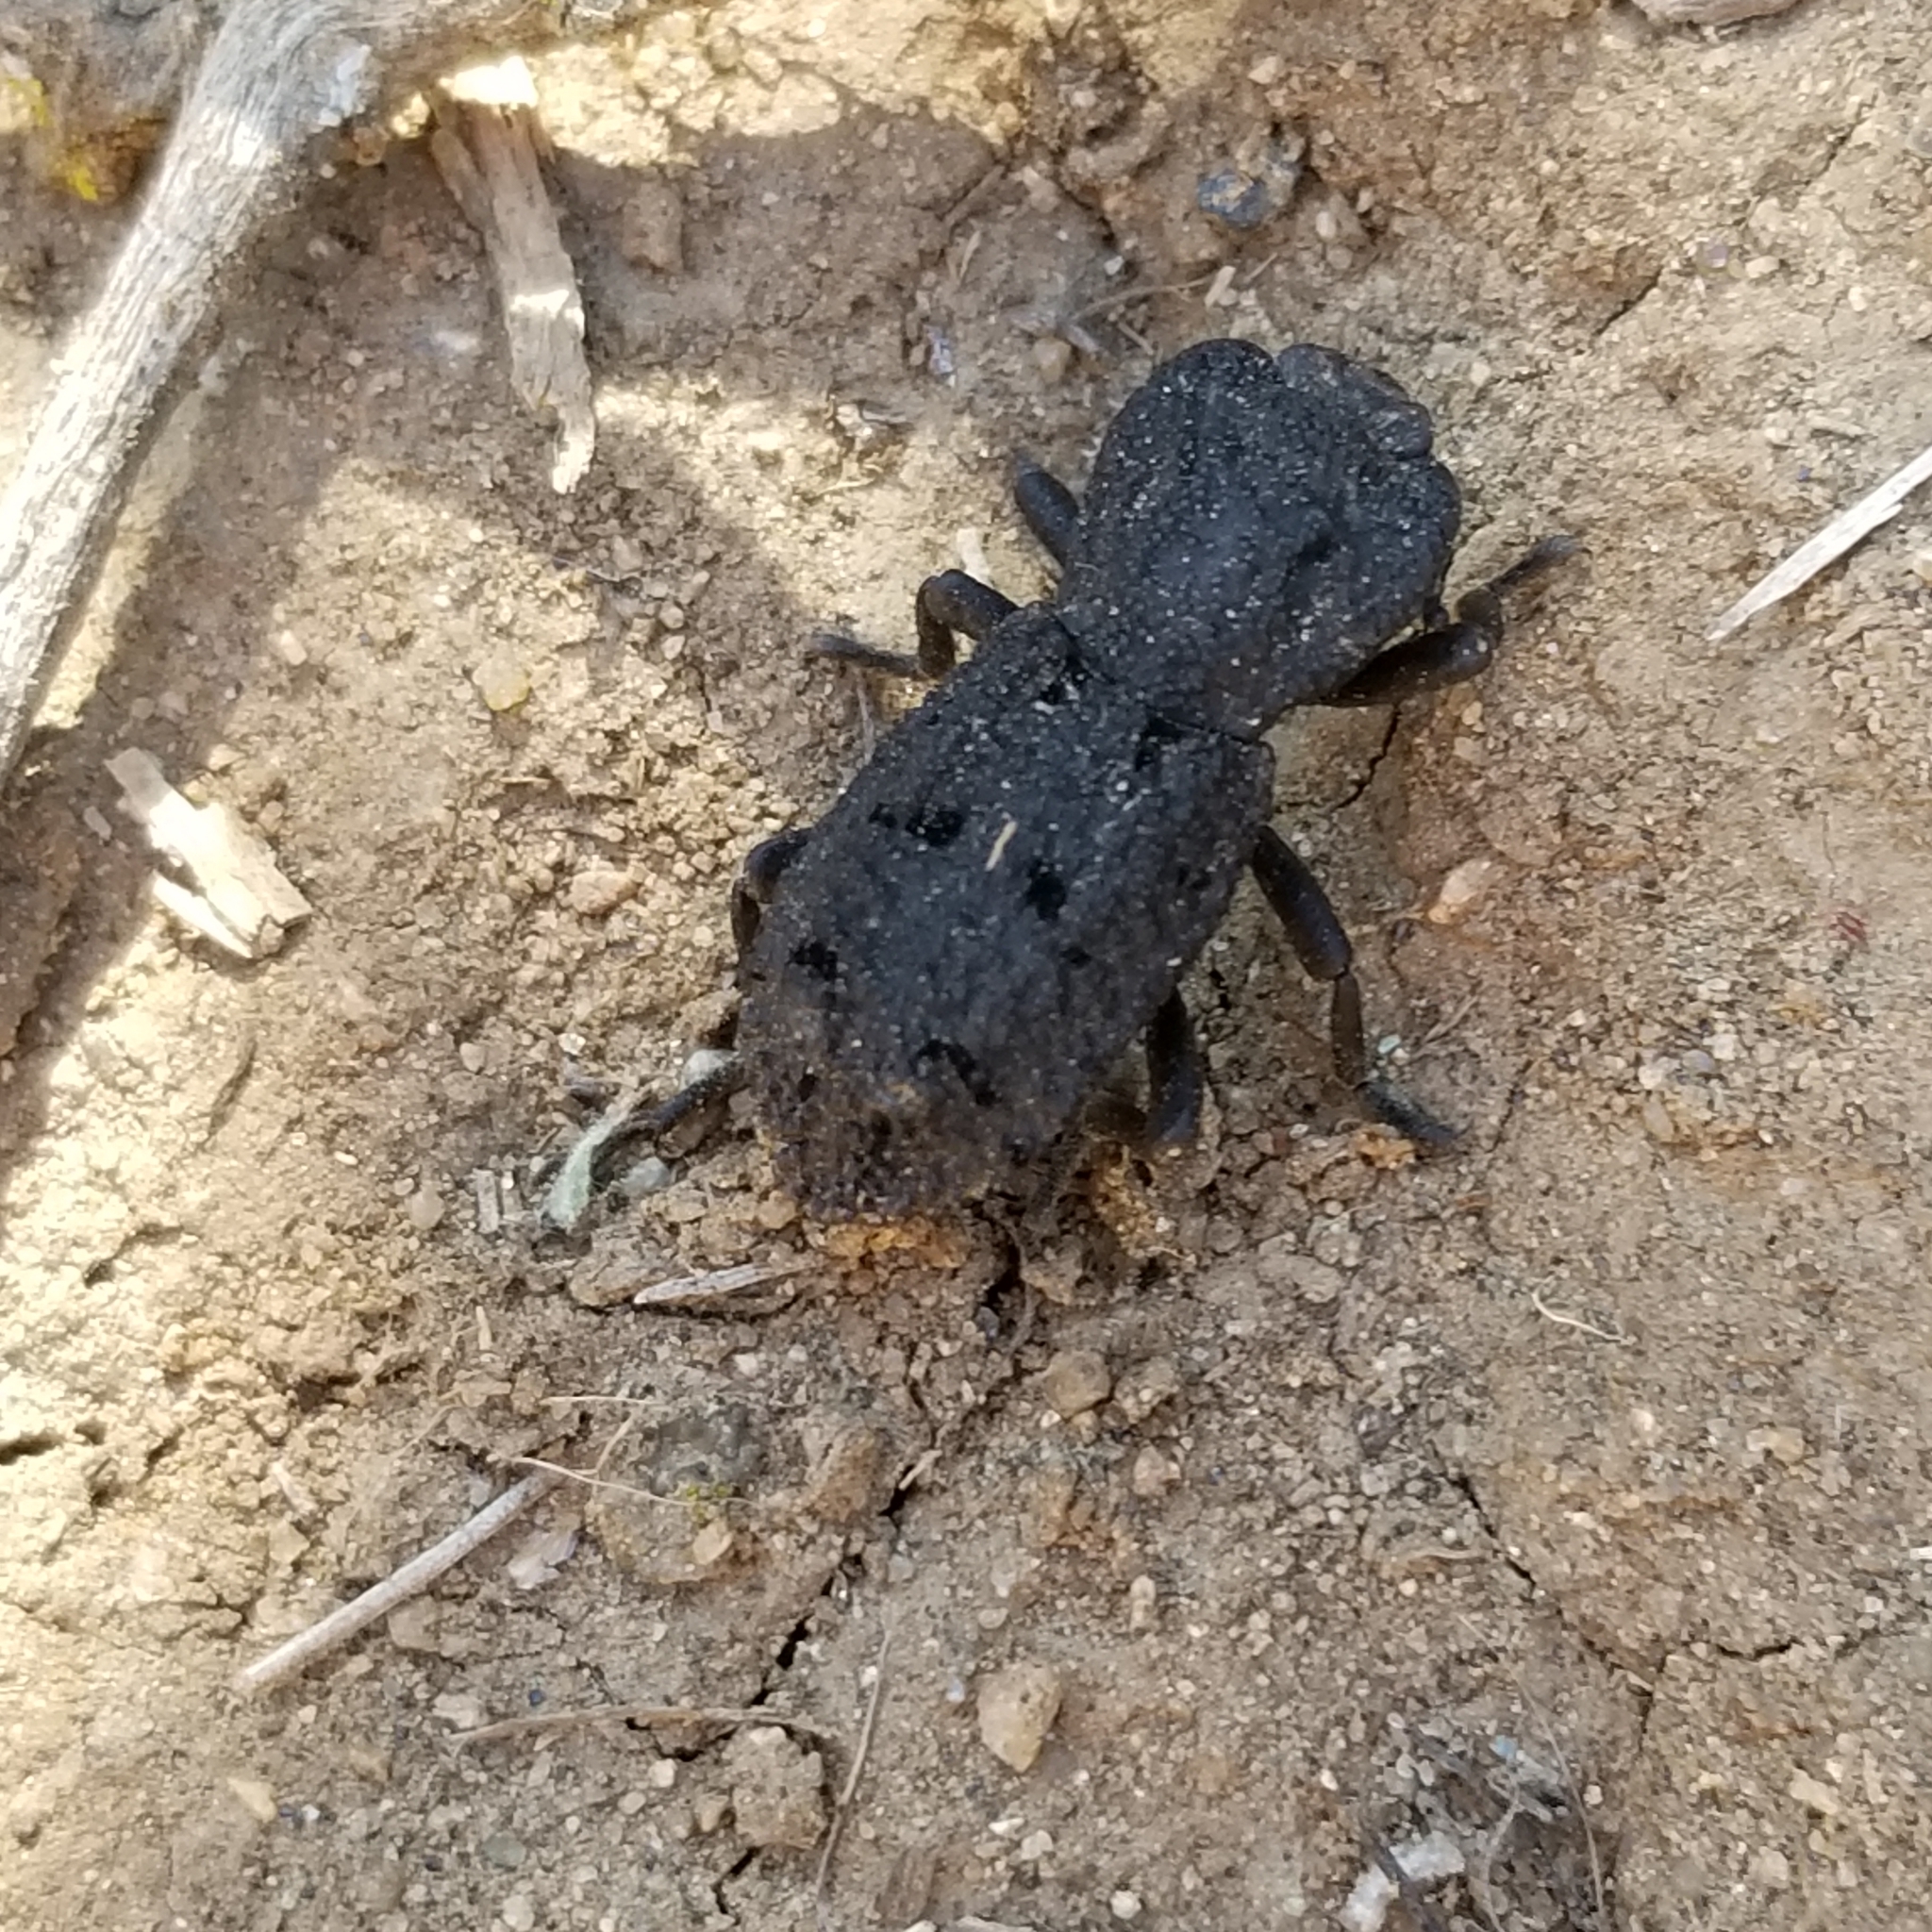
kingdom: Animalia
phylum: Arthropoda
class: Insecta
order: Coleoptera
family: Zopheridae
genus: Phloeodes
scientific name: Phloeodes diabolicus
